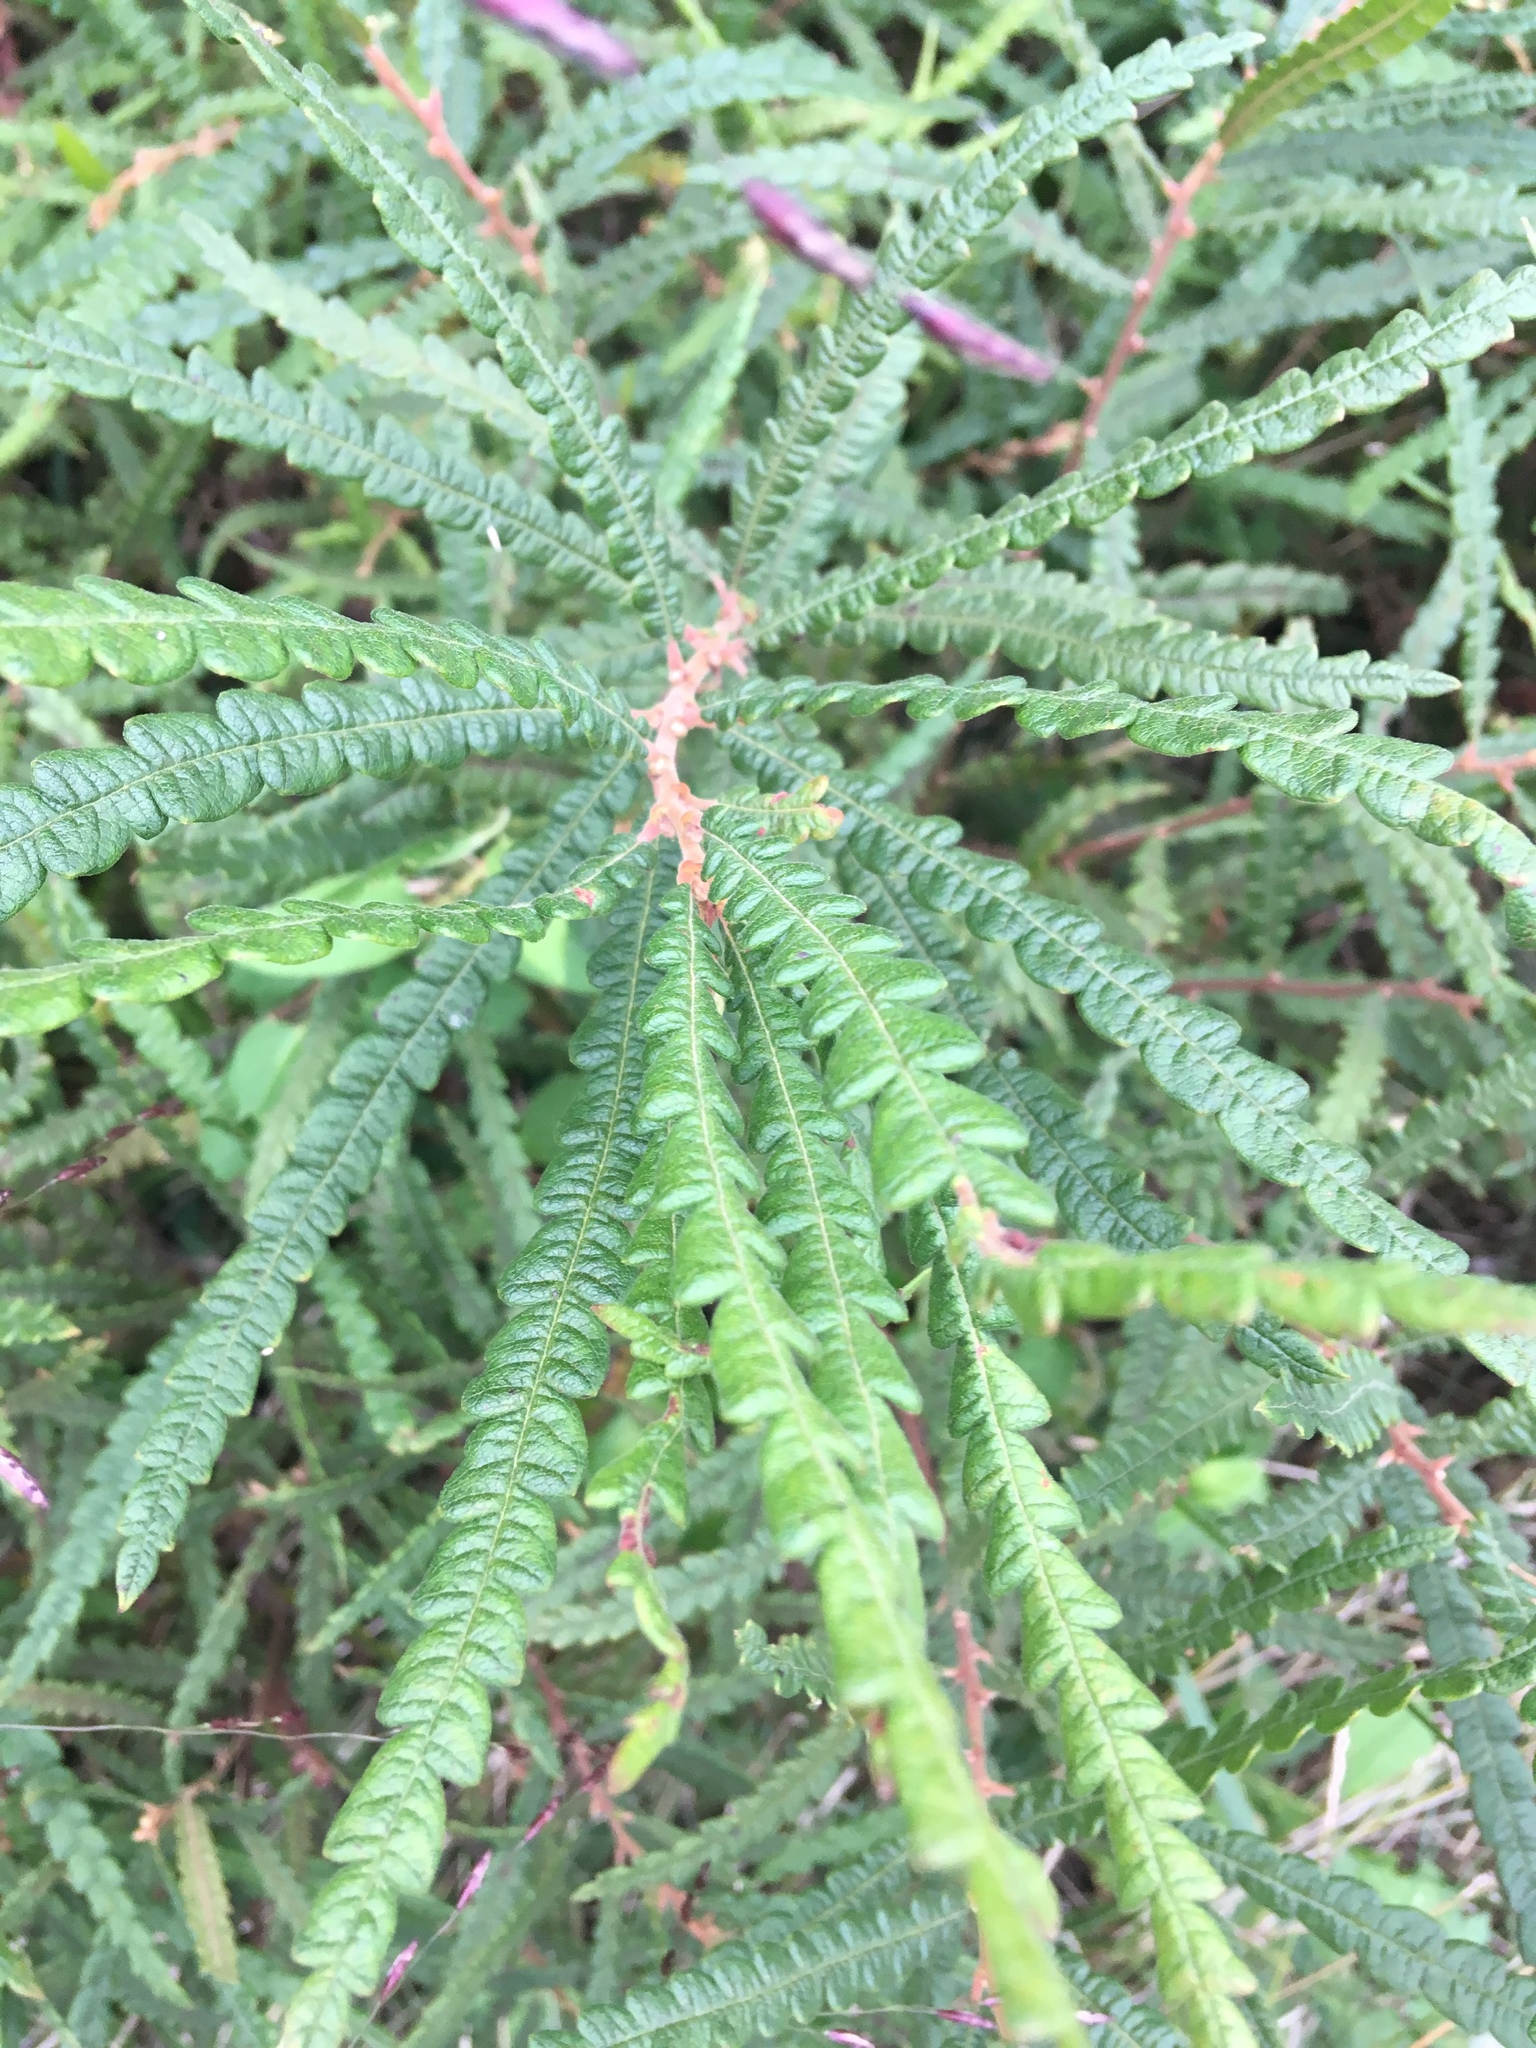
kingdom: Plantae
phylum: Tracheophyta
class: Magnoliopsida
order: Fagales
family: Myricaceae
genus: Comptonia
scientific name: Comptonia peregrina
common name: Sweet-fern
